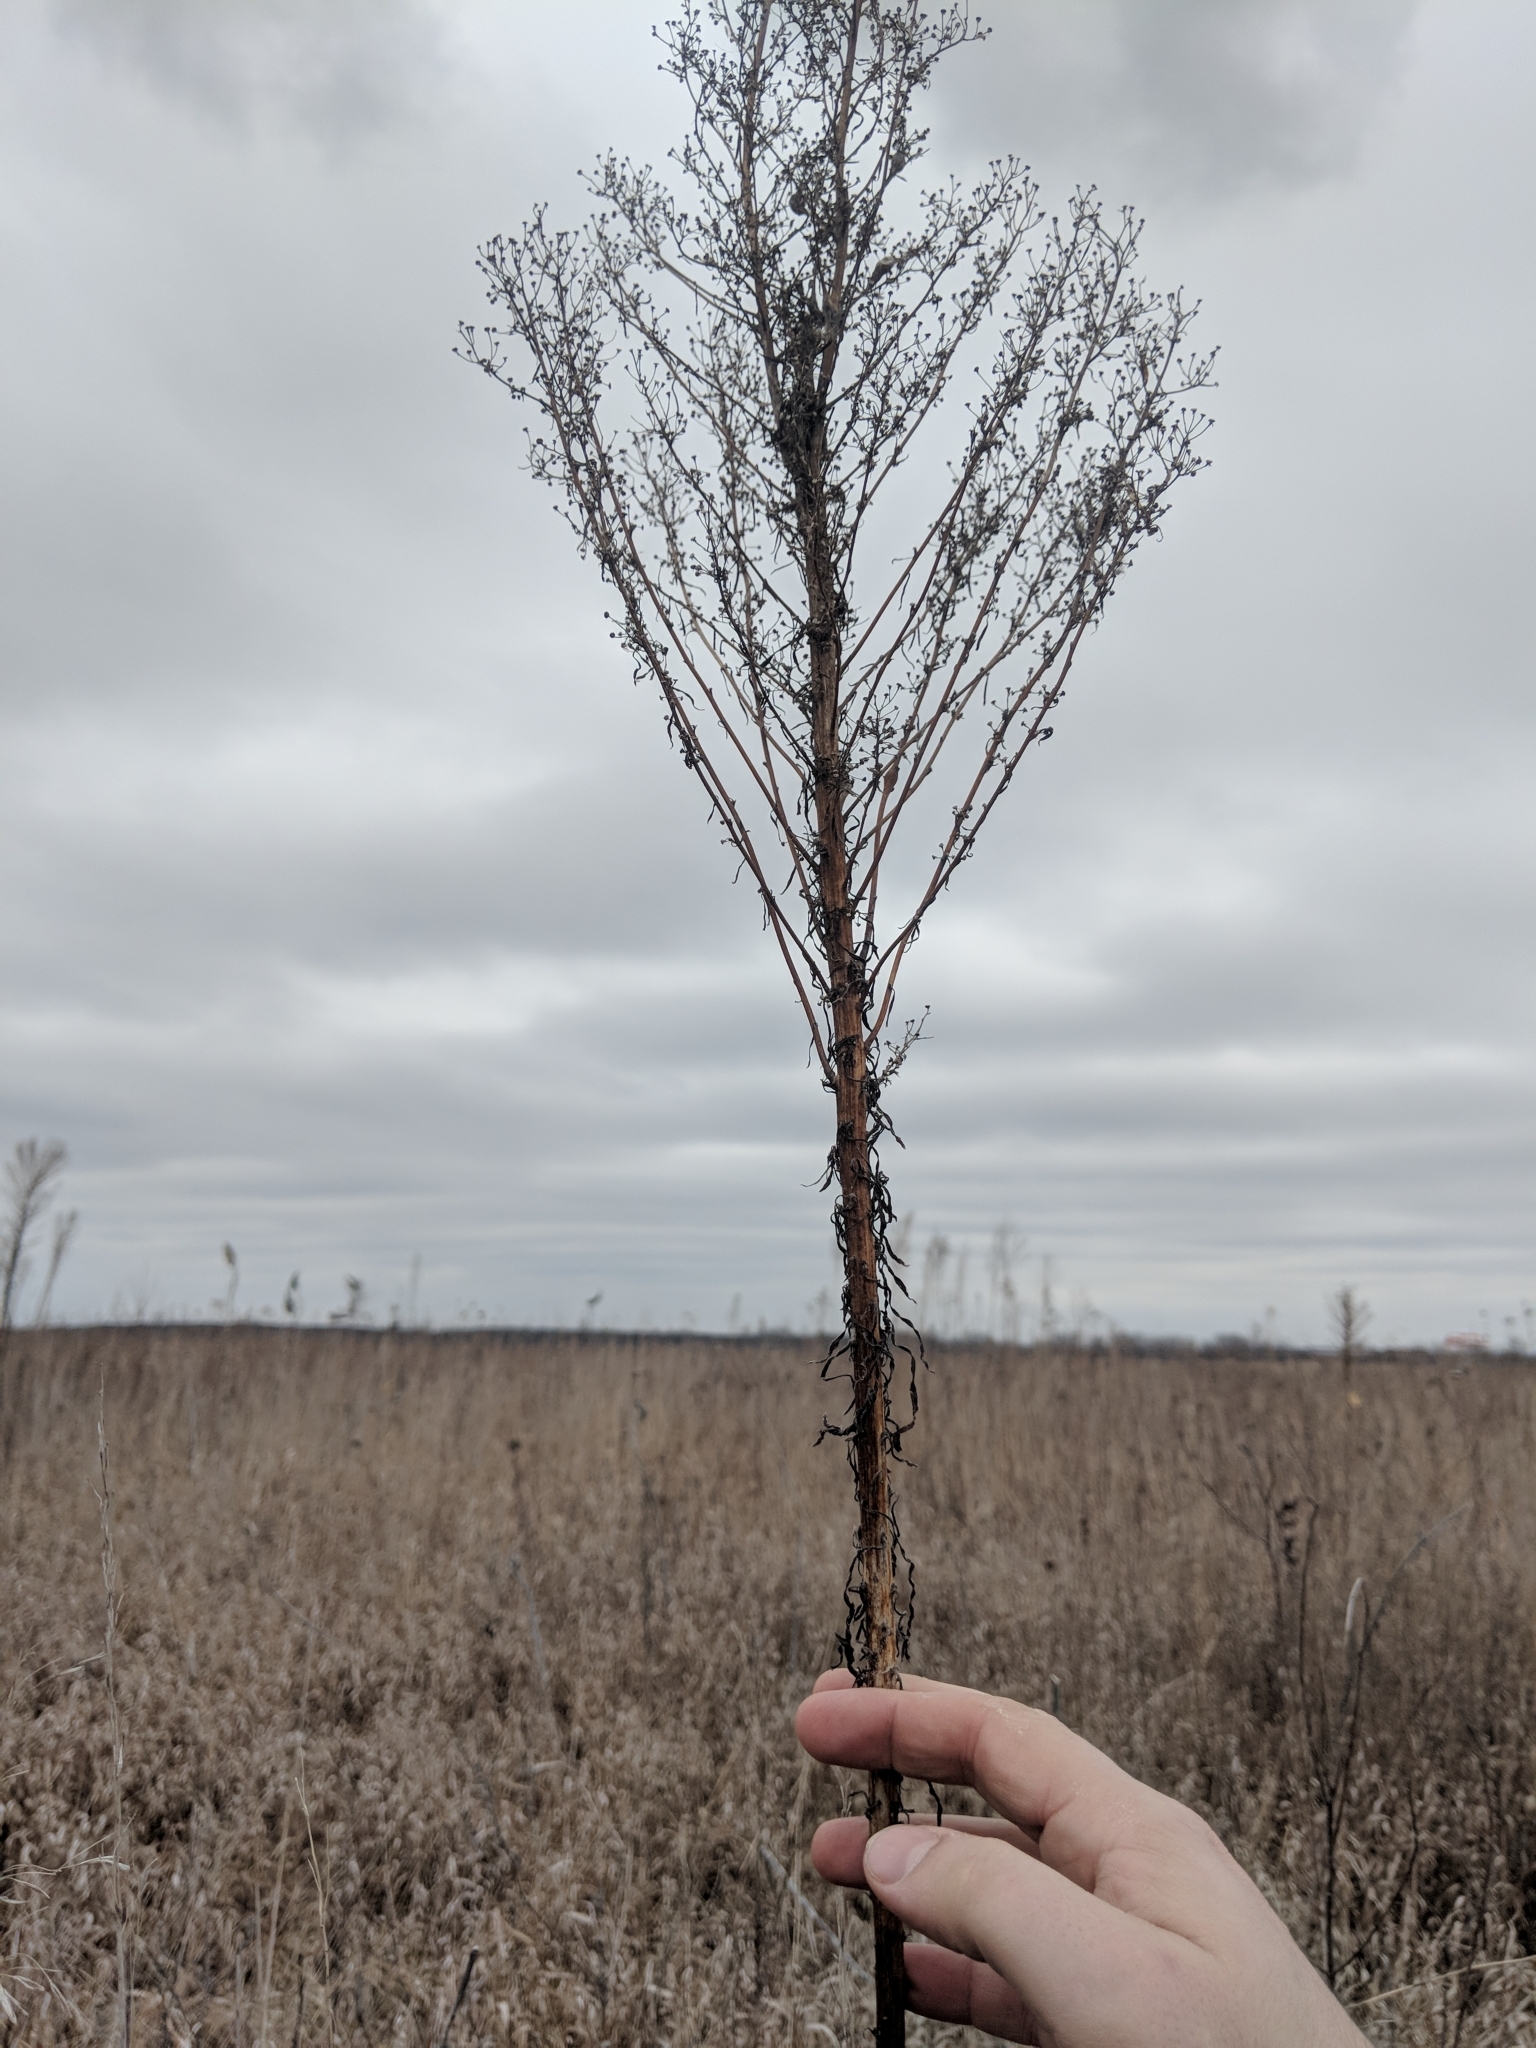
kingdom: Plantae
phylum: Tracheophyta
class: Magnoliopsida
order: Asterales
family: Asteraceae
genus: Erigeron
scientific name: Erigeron canadensis
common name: Canadian fleabane
